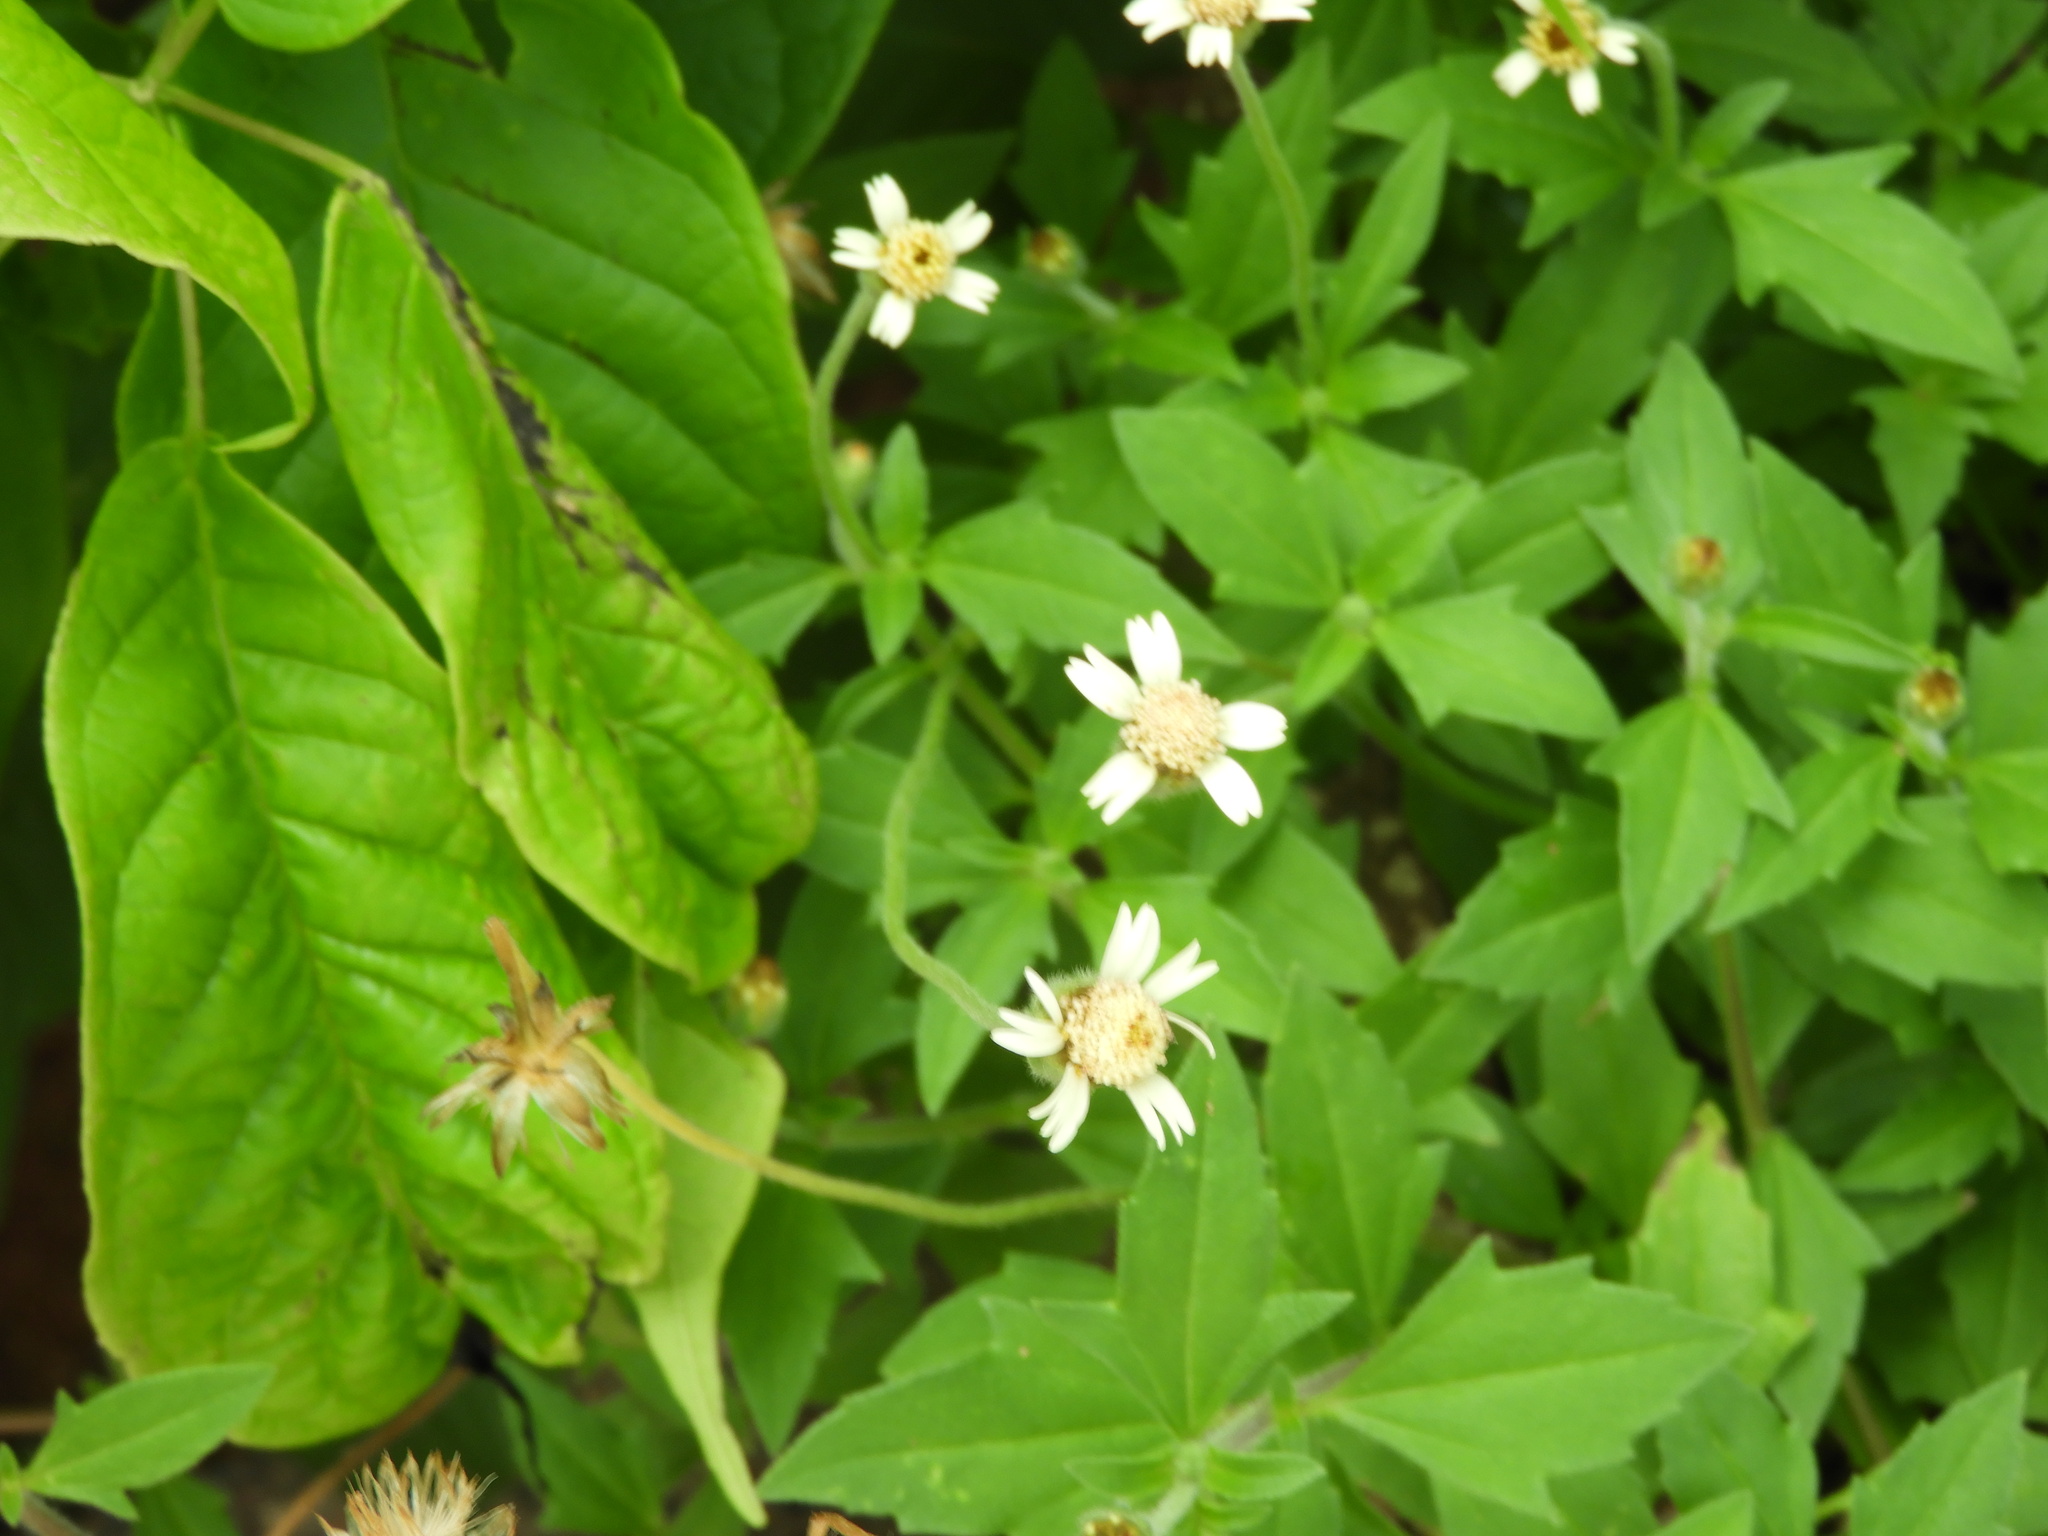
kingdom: Plantae
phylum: Tracheophyta
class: Magnoliopsida
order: Asterales
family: Asteraceae
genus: Tridax
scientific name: Tridax procumbens
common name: Coatbuttons
